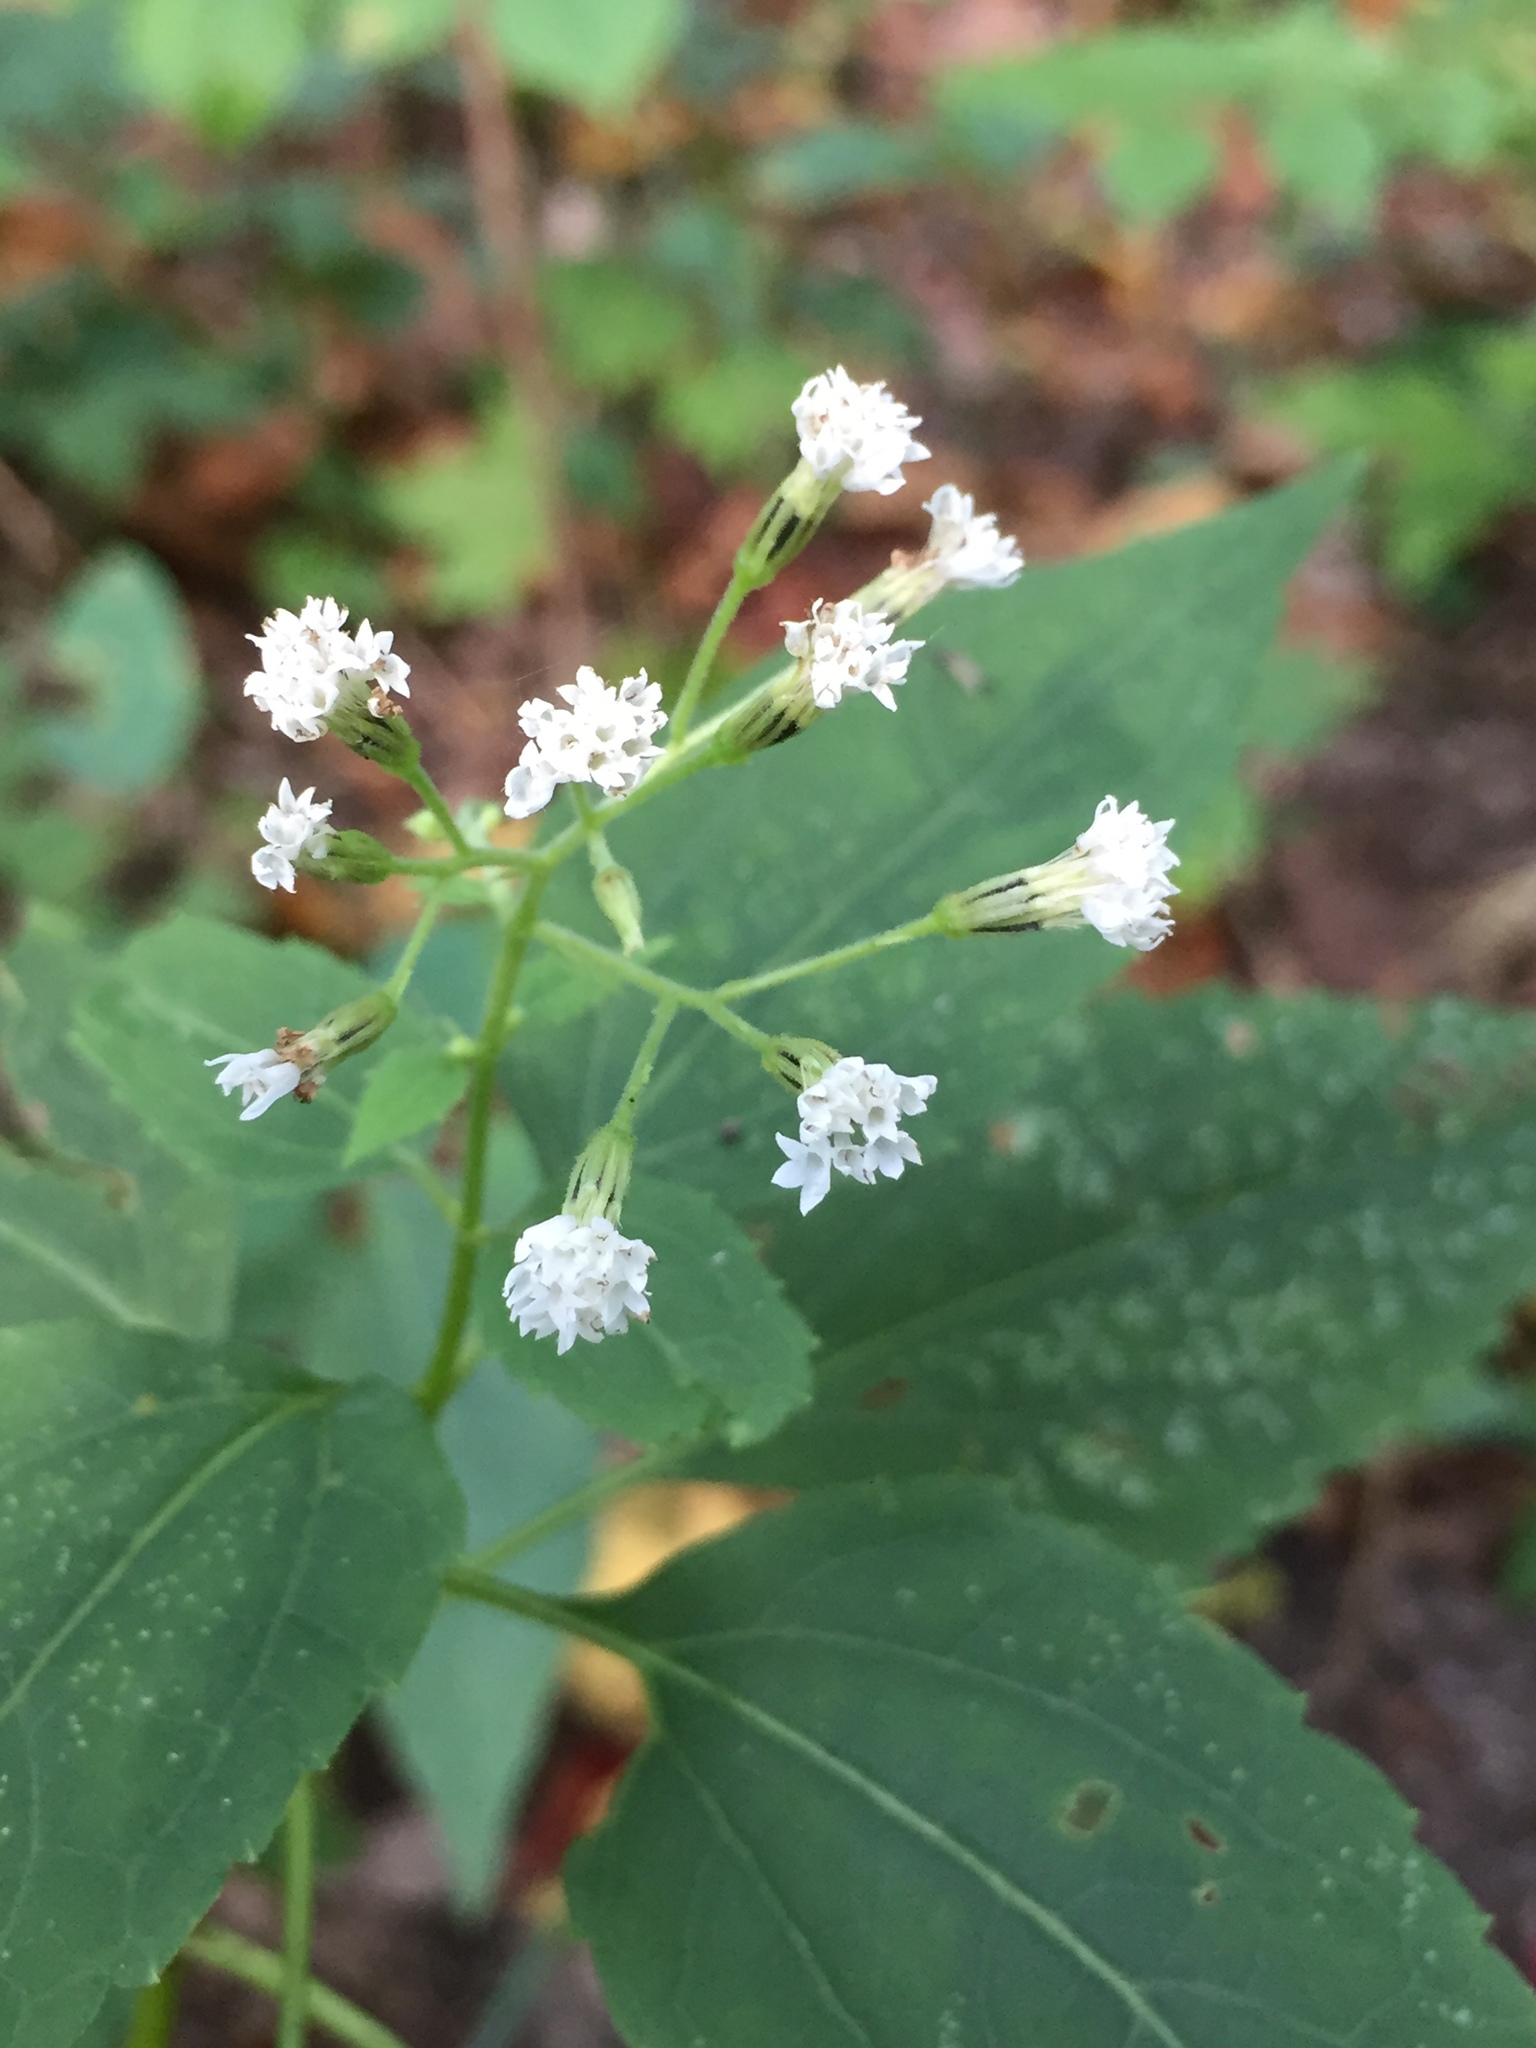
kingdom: Plantae
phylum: Tracheophyta
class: Magnoliopsida
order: Asterales
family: Asteraceae
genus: Ageratina
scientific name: Ageratina altissima
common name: White snakeroot
